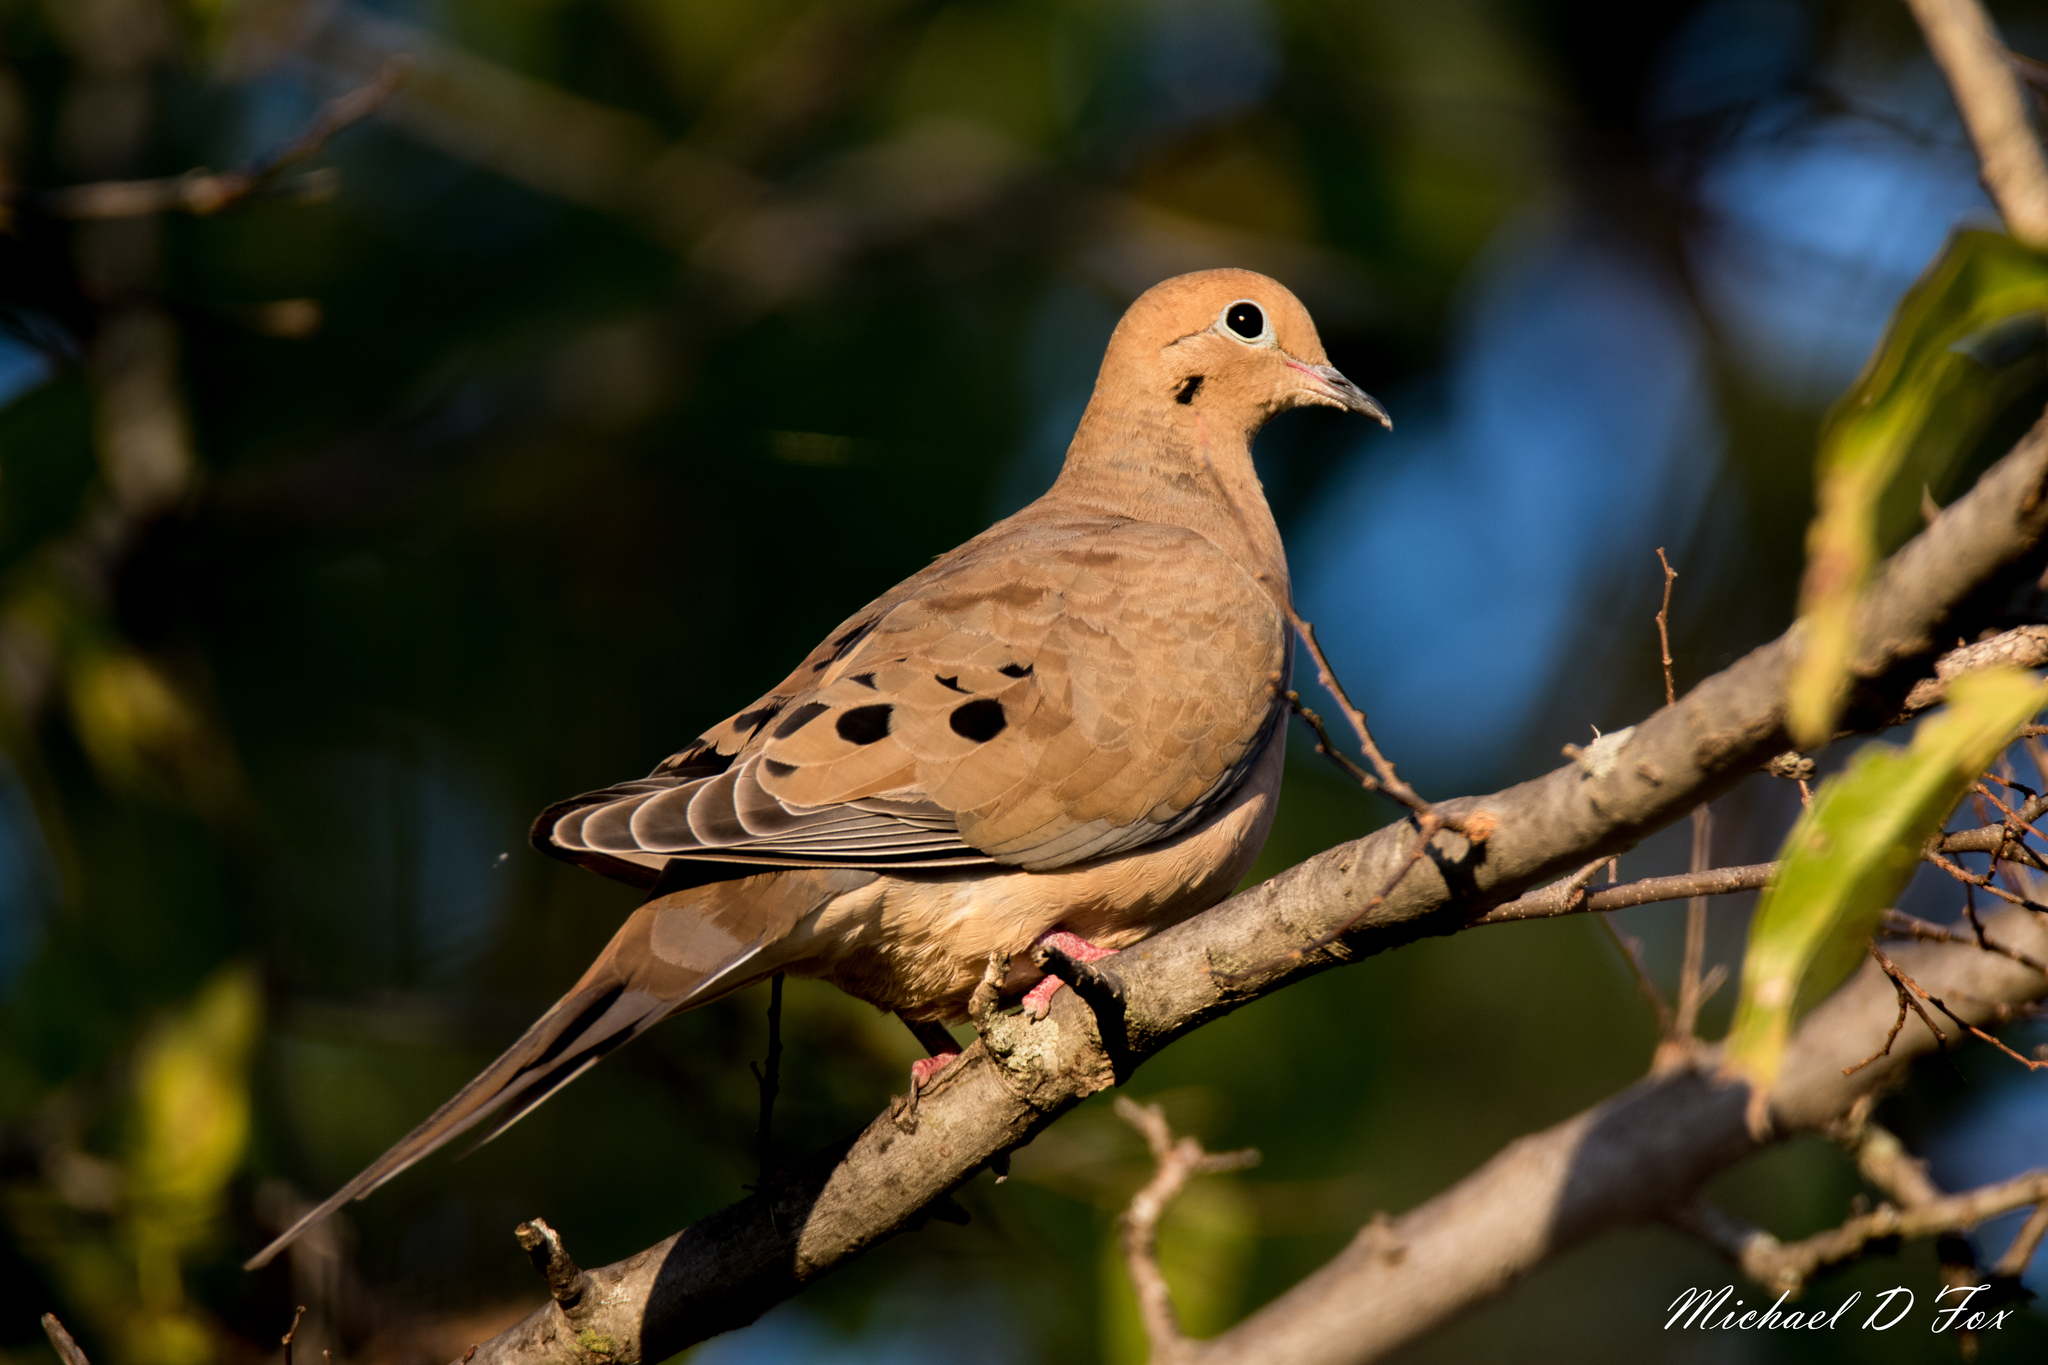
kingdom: Animalia
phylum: Chordata
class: Aves
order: Columbiformes
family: Columbidae
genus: Zenaida
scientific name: Zenaida macroura
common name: Mourning dove
